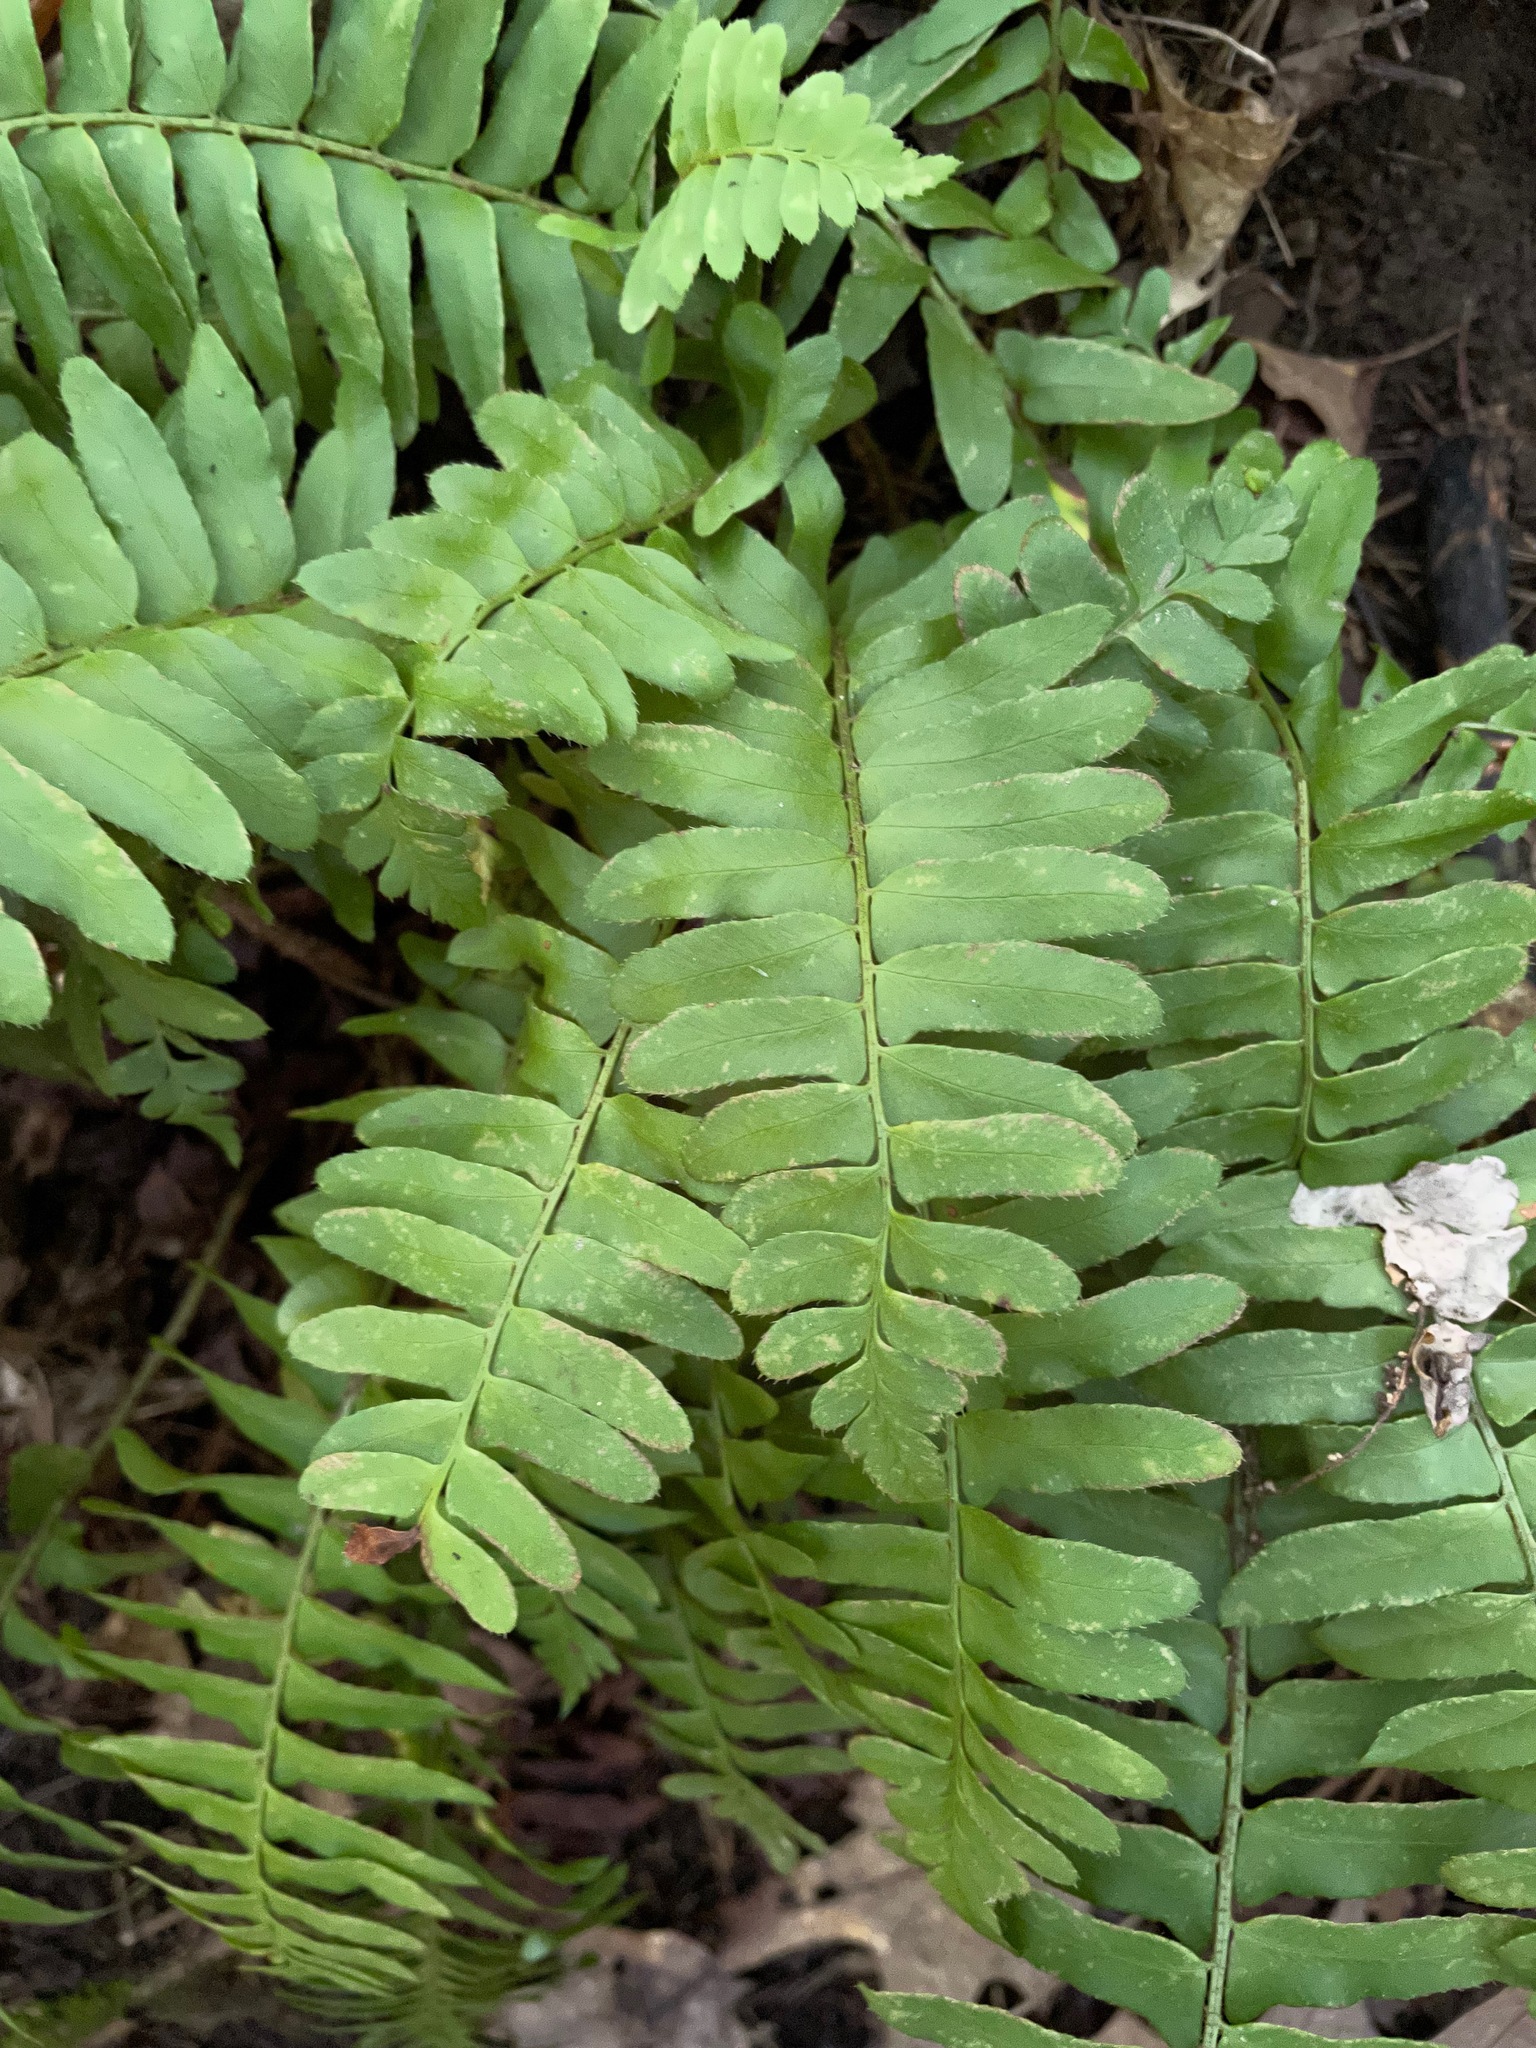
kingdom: Plantae
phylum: Tracheophyta
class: Polypodiopsida
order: Polypodiales
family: Dryopteridaceae
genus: Polystichum
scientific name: Polystichum acrostichoides
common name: Christmas fern
